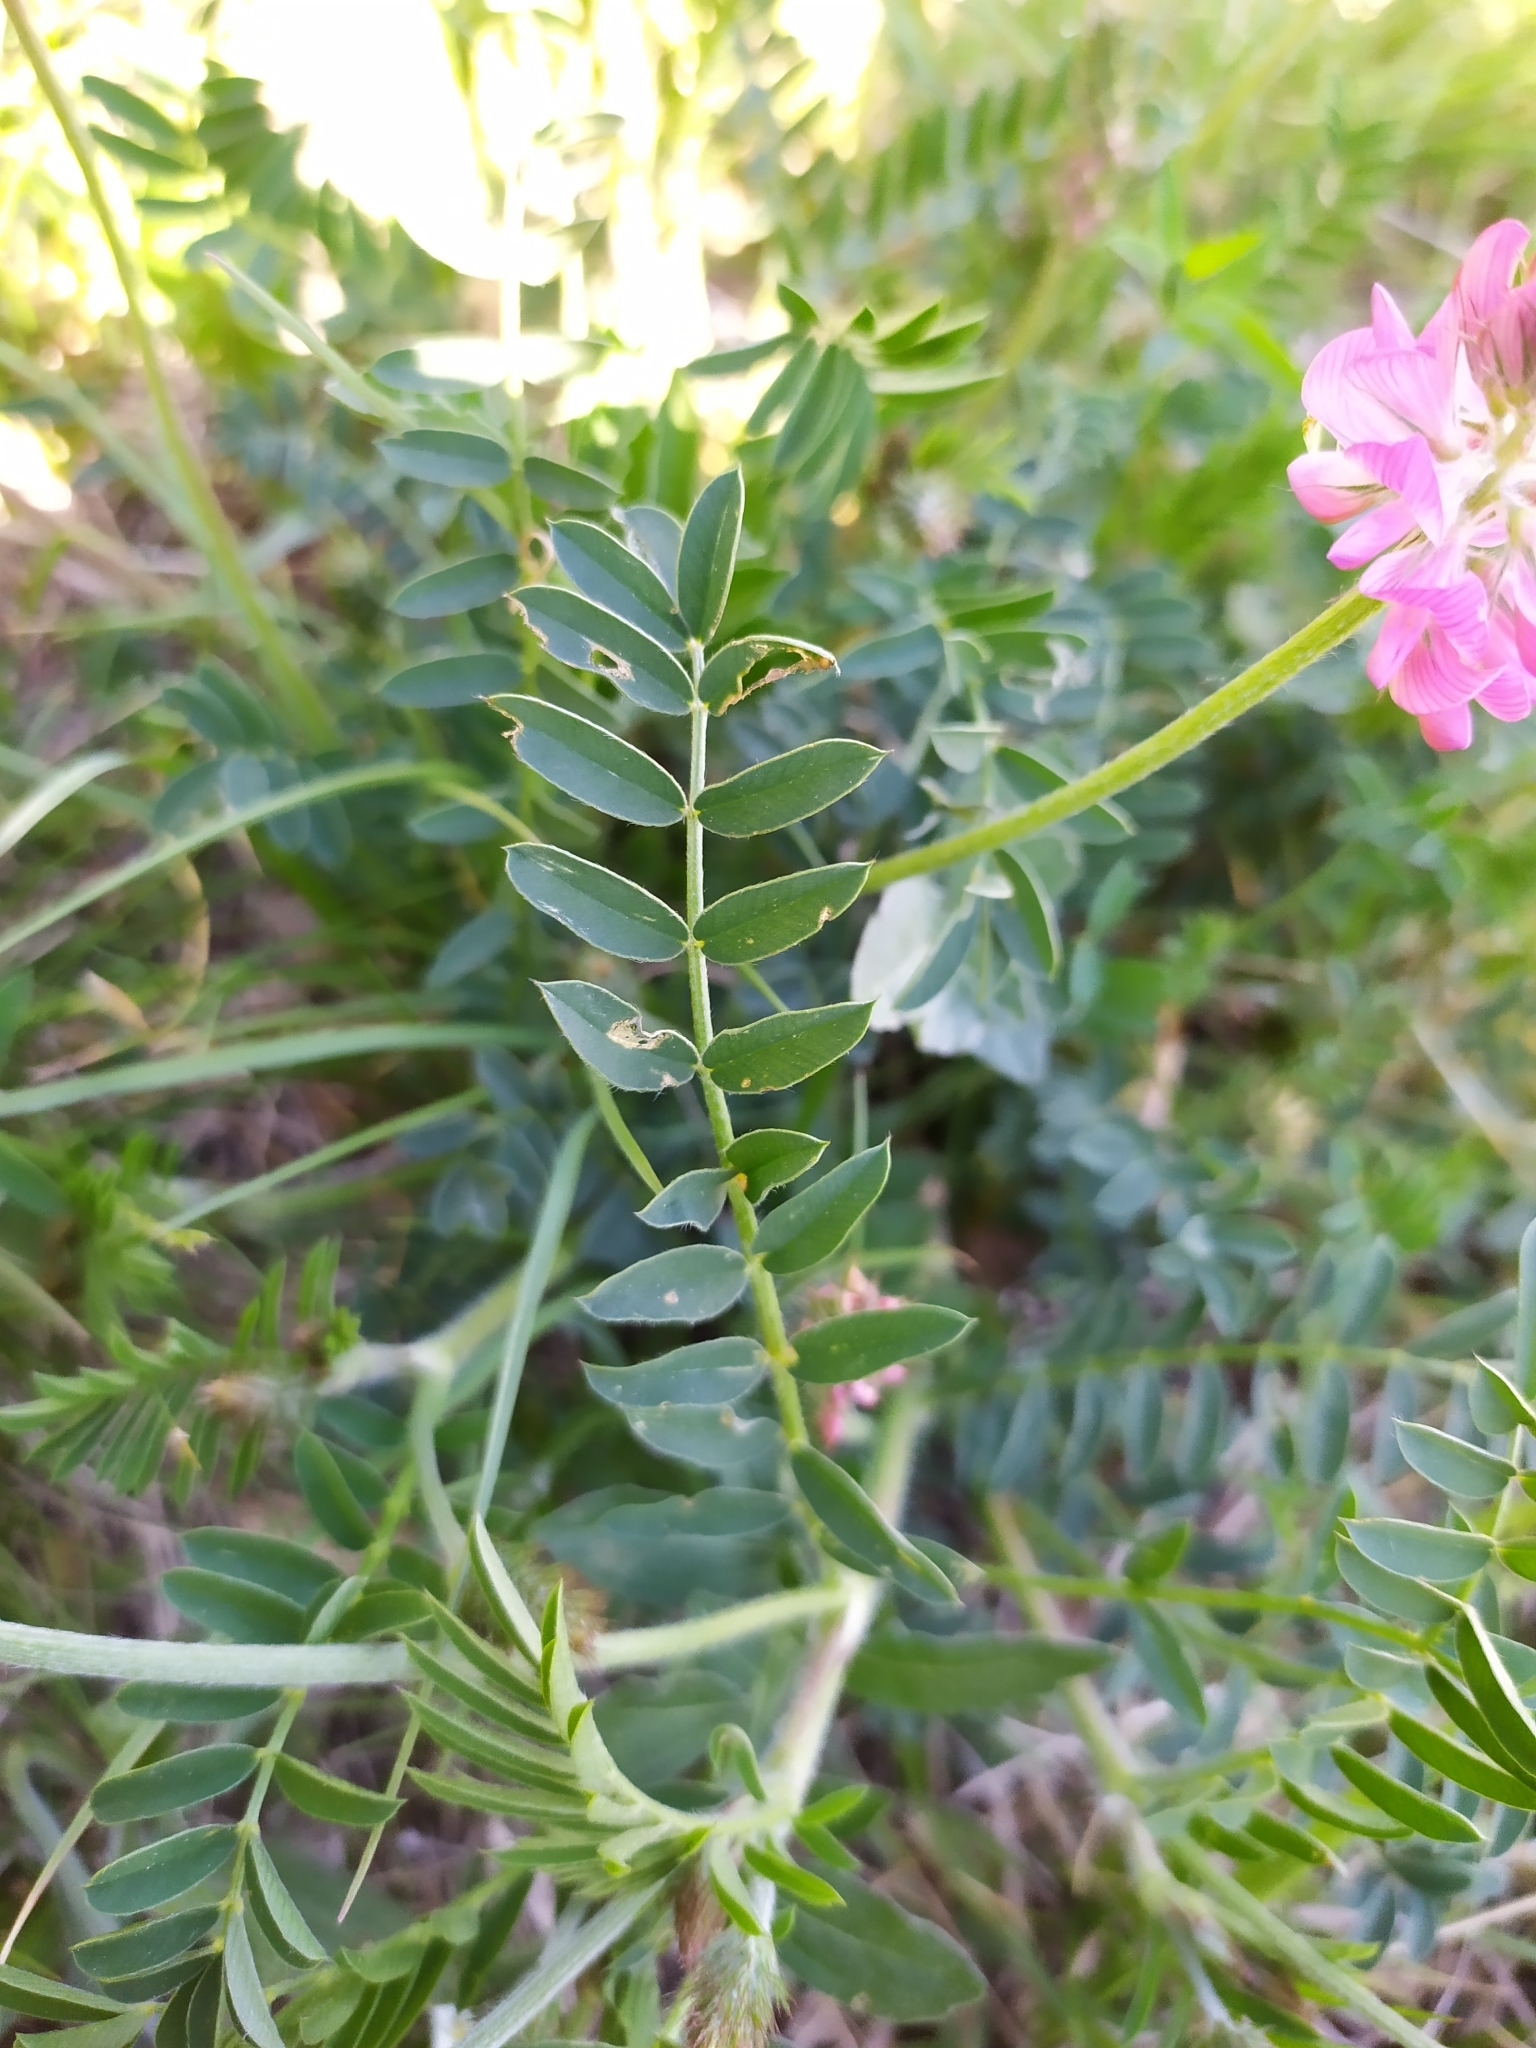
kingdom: Plantae
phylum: Tracheophyta
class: Magnoliopsida
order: Fabales
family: Fabaceae
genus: Onobrychis
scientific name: Onobrychis viciifolia
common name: Sainfoin
